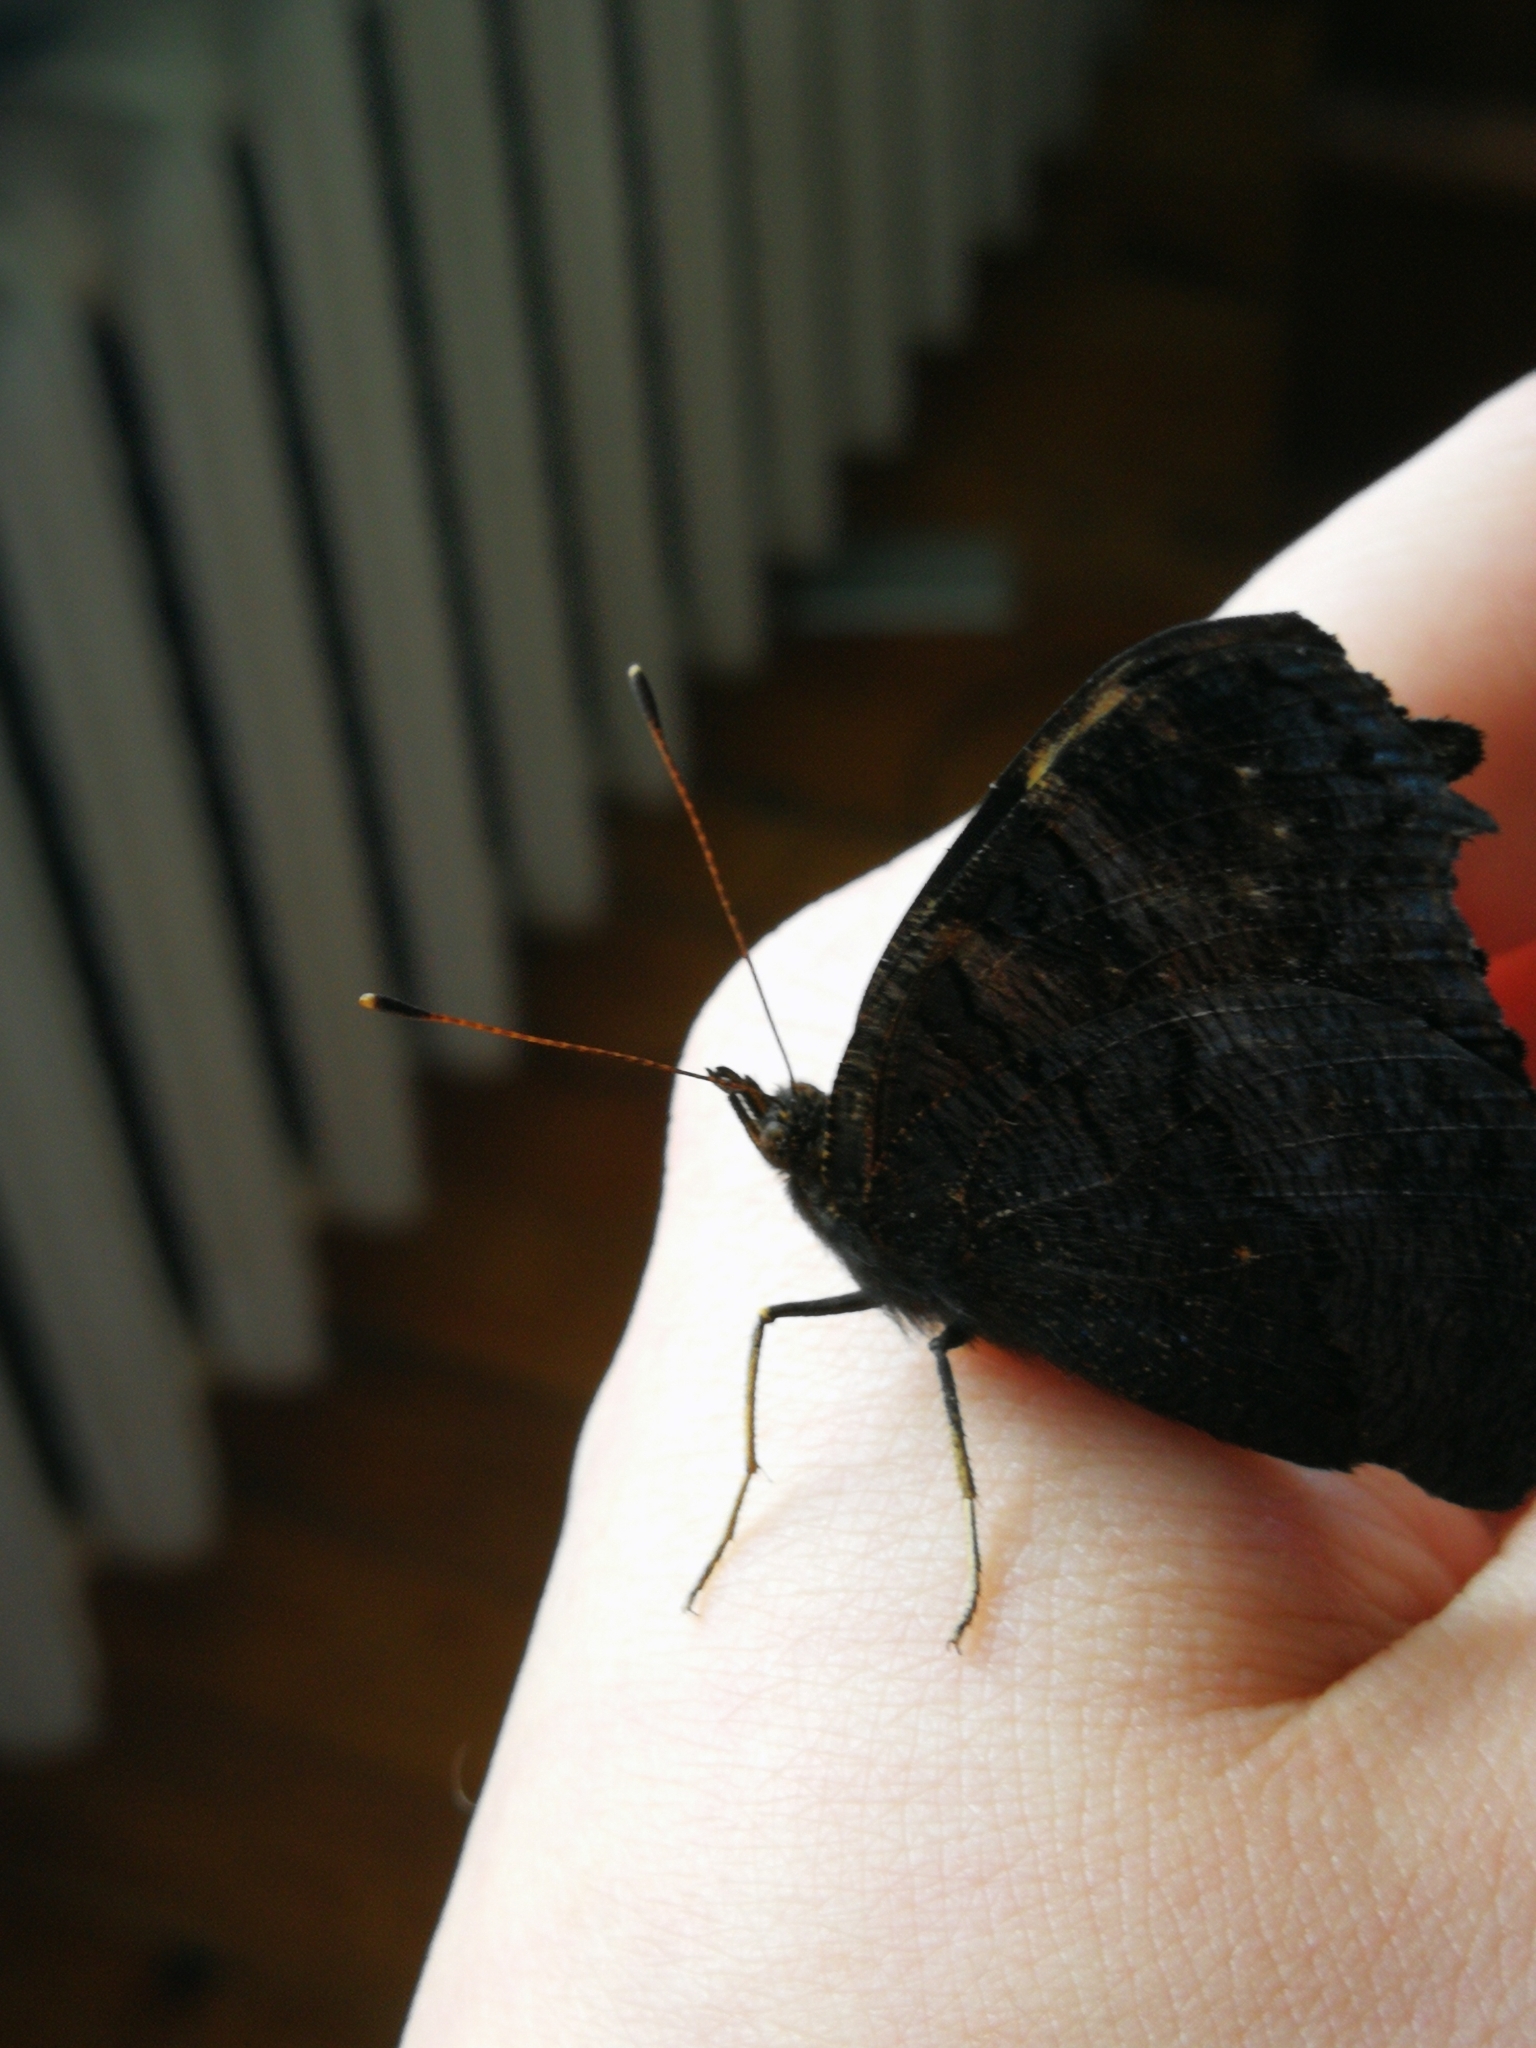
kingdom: Animalia
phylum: Arthropoda
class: Insecta
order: Lepidoptera
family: Nymphalidae
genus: Aglais
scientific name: Aglais io
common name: Peacock
